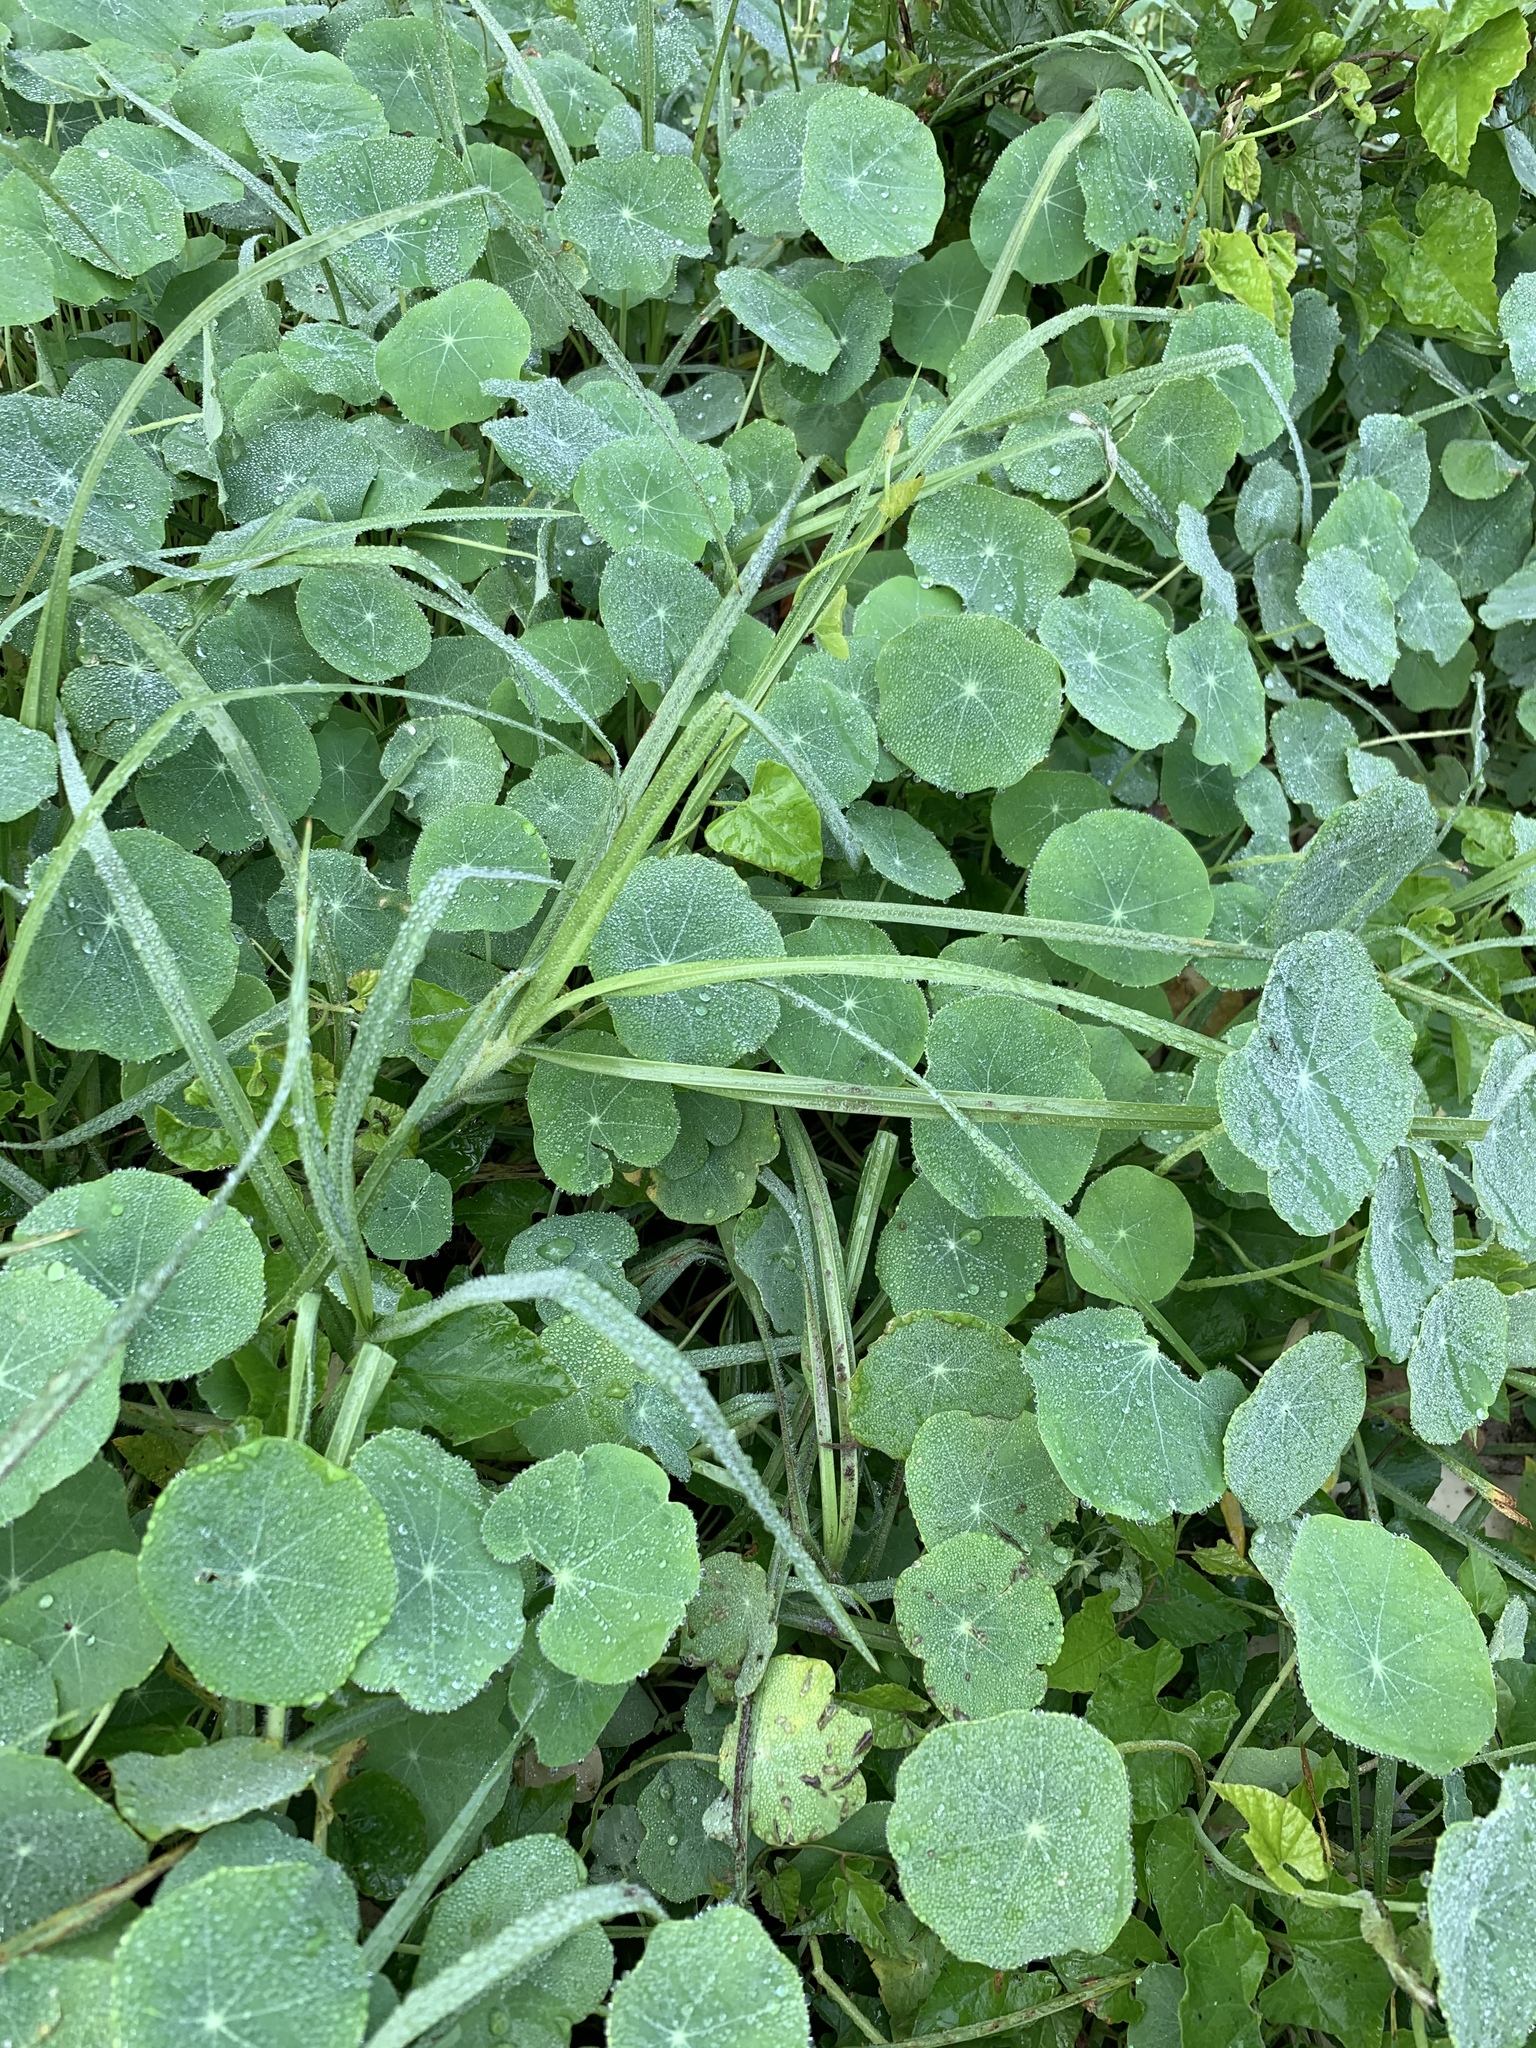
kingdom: Plantae
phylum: Tracheophyta
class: Magnoliopsida
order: Brassicales
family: Tropaeolaceae
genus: Tropaeolum
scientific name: Tropaeolum majus
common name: Nasturtium
